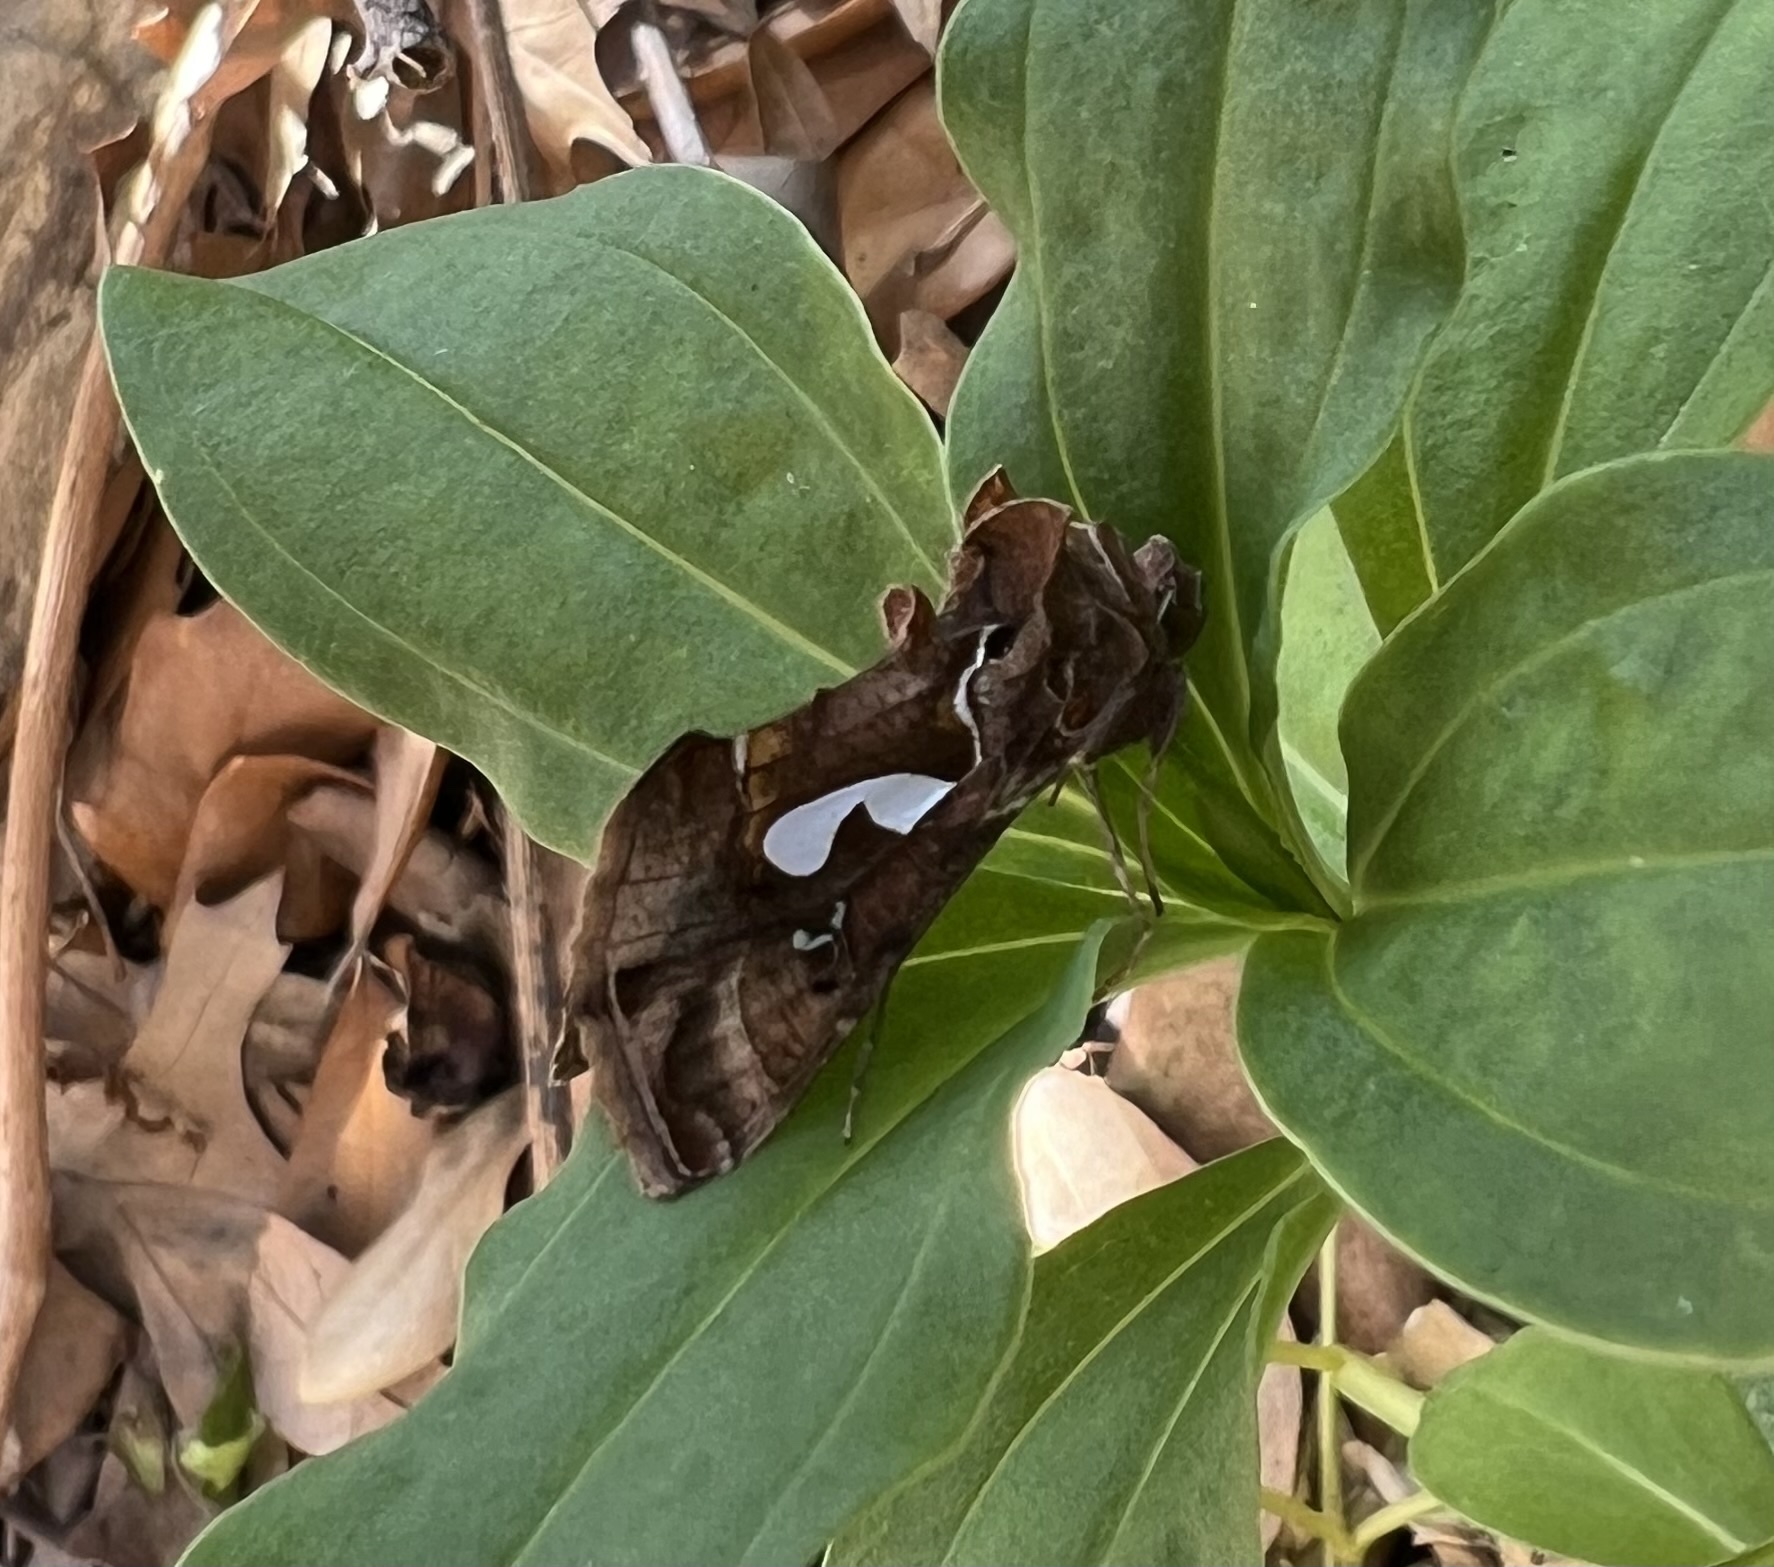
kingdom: Animalia
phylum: Arthropoda
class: Insecta
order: Lepidoptera
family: Noctuidae
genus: Megalographa
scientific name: Megalographa biloba
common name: Cutworm
